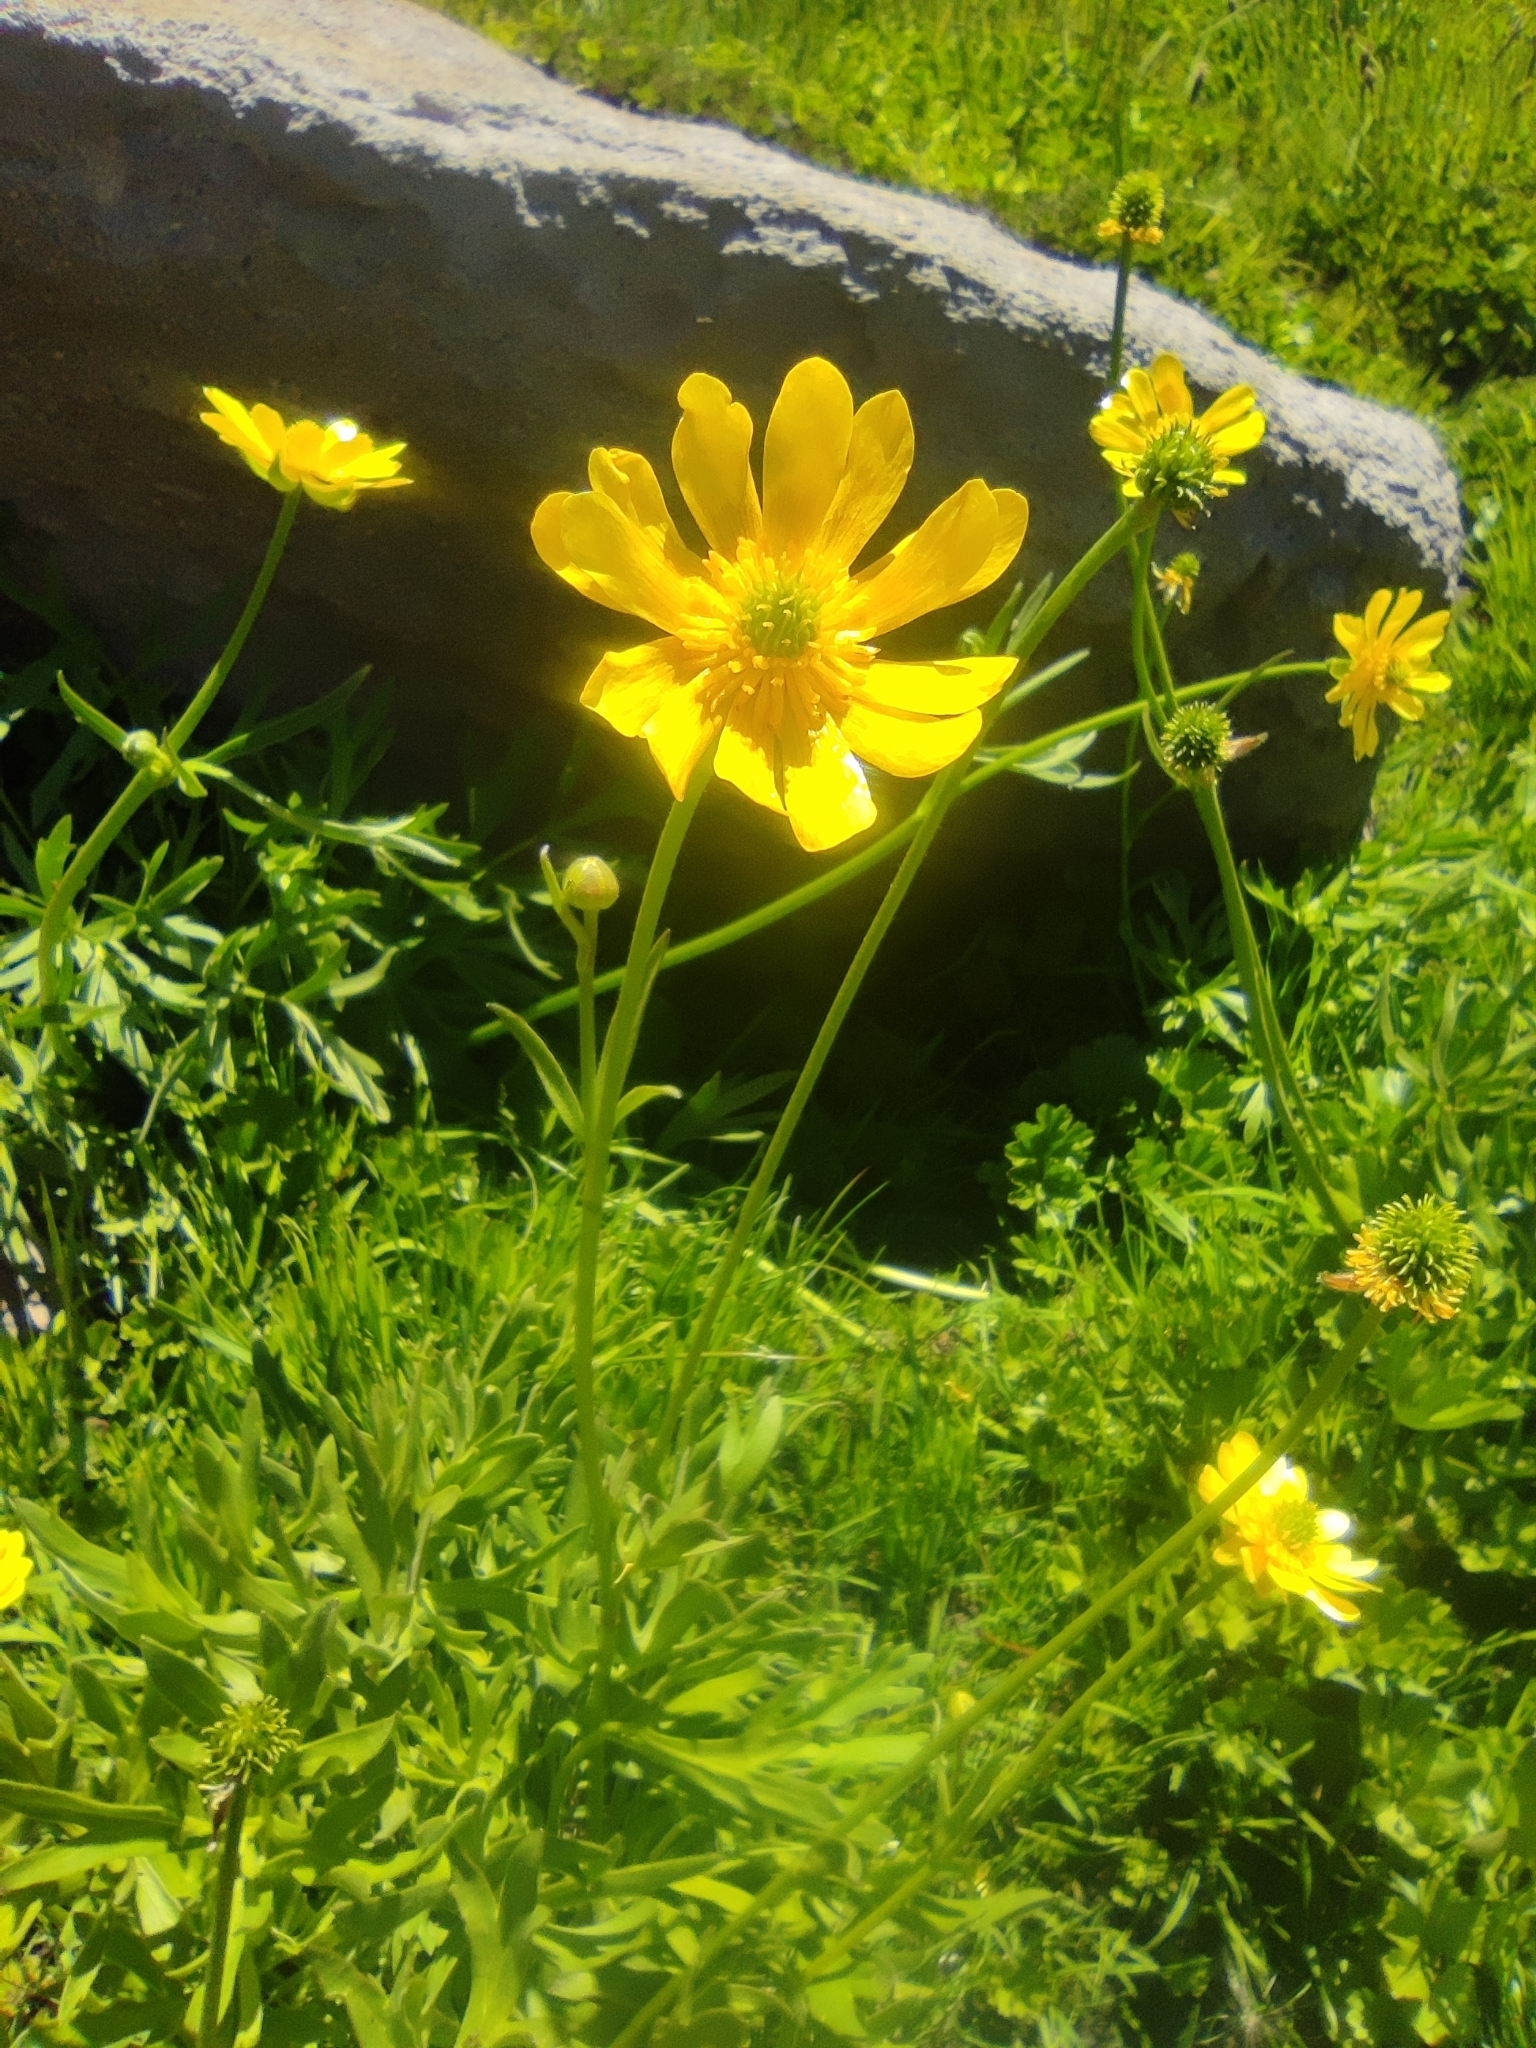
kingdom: Plantae
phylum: Tracheophyta
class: Magnoliopsida
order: Ranunculales
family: Ranunculaceae
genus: Ranunculus
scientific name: Ranunculus peduncularis
